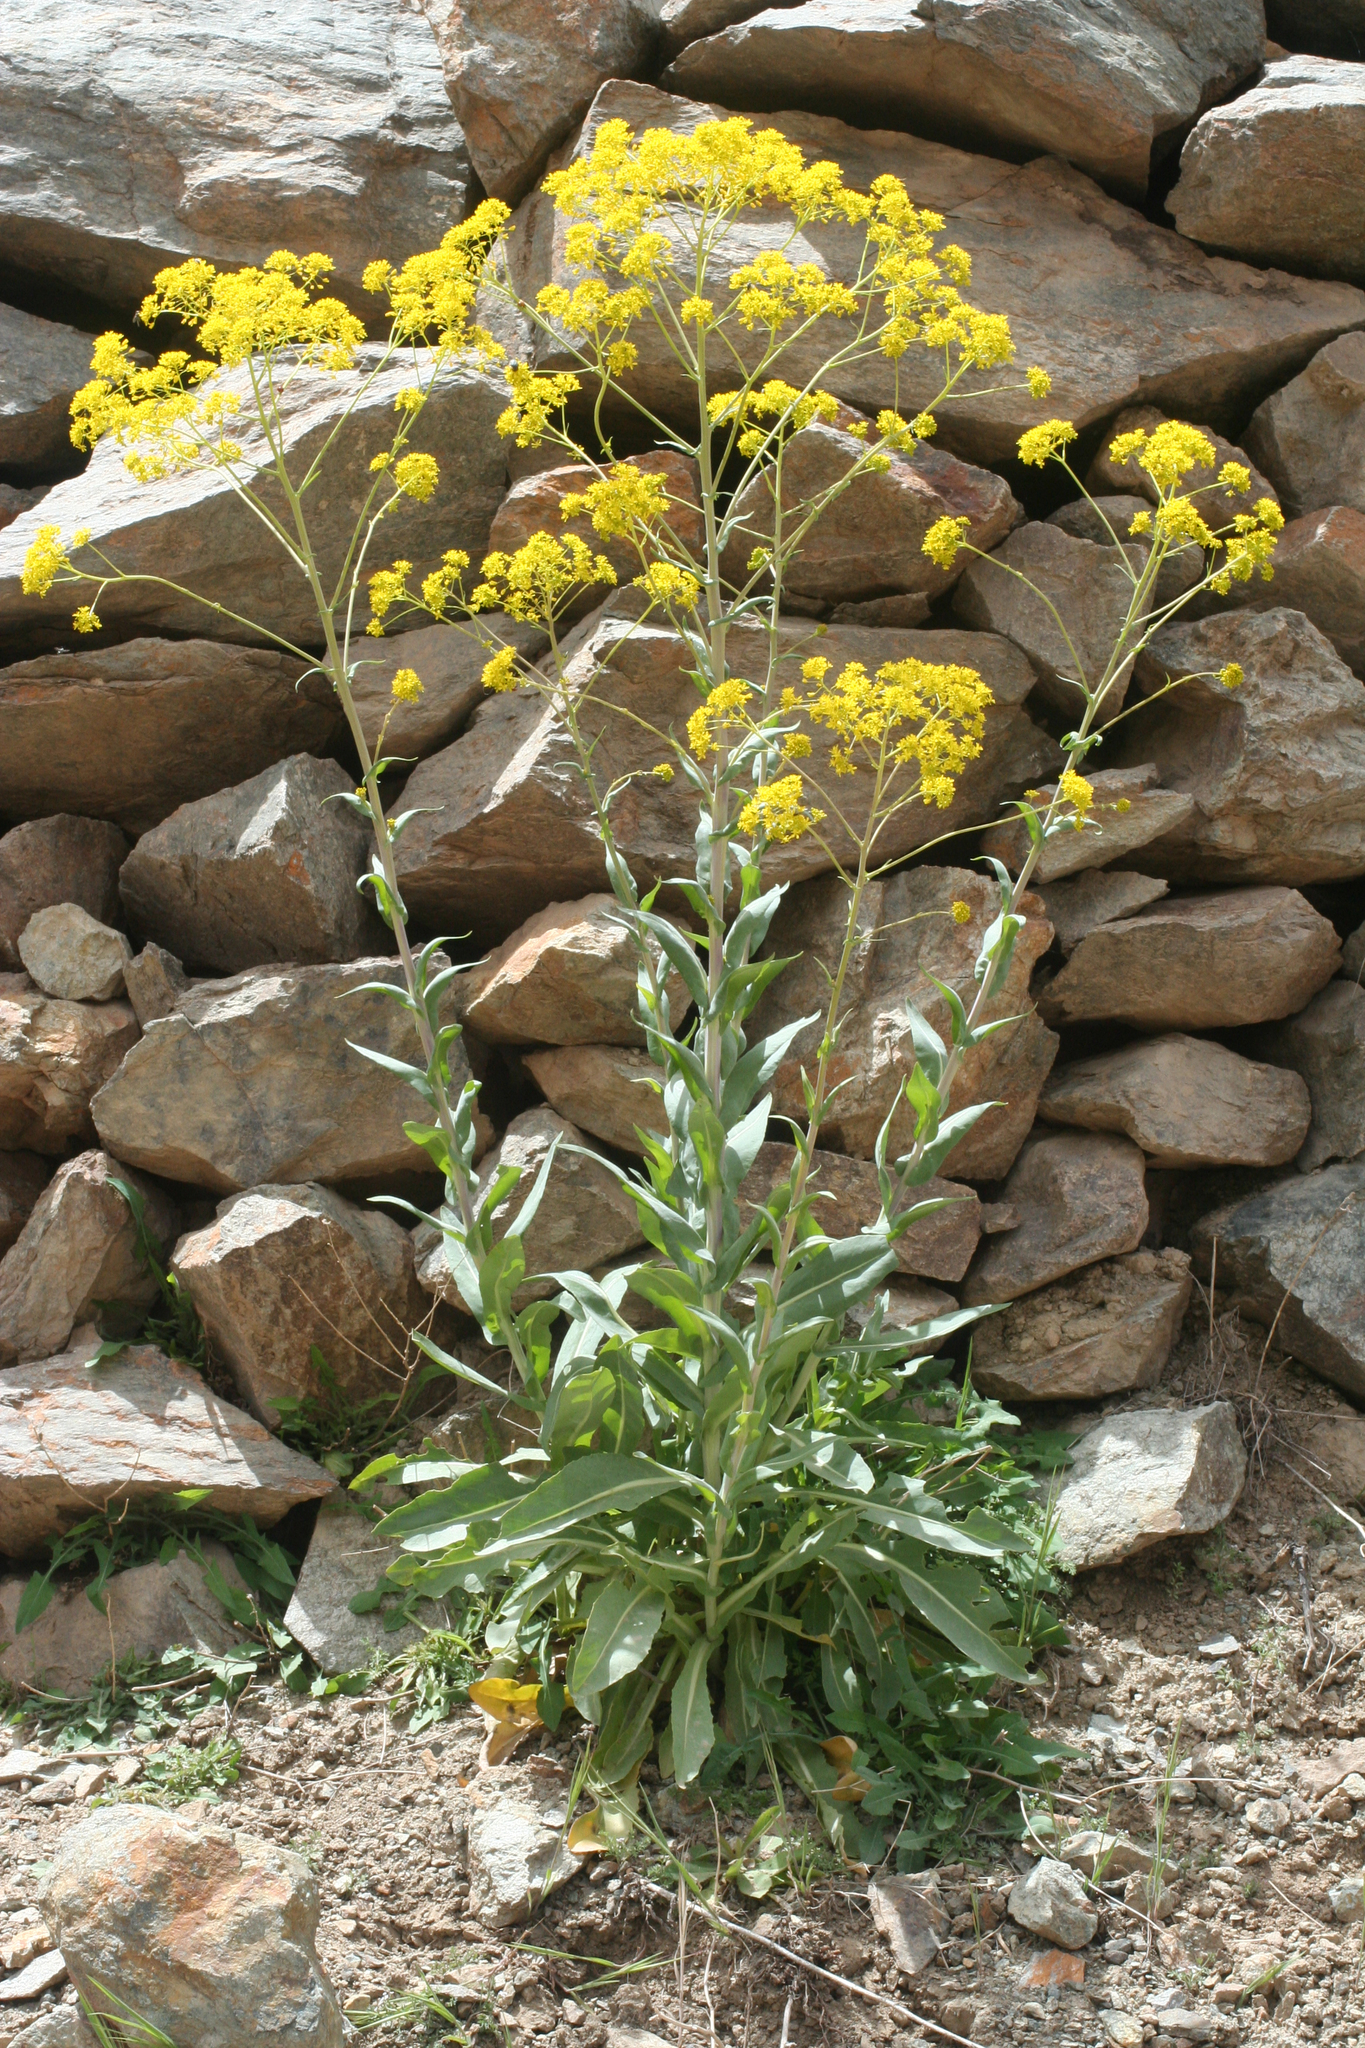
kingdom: Plantae
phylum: Tracheophyta
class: Magnoliopsida
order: Brassicales
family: Brassicaceae
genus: Isatis
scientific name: Isatis tinctoria
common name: Woad
